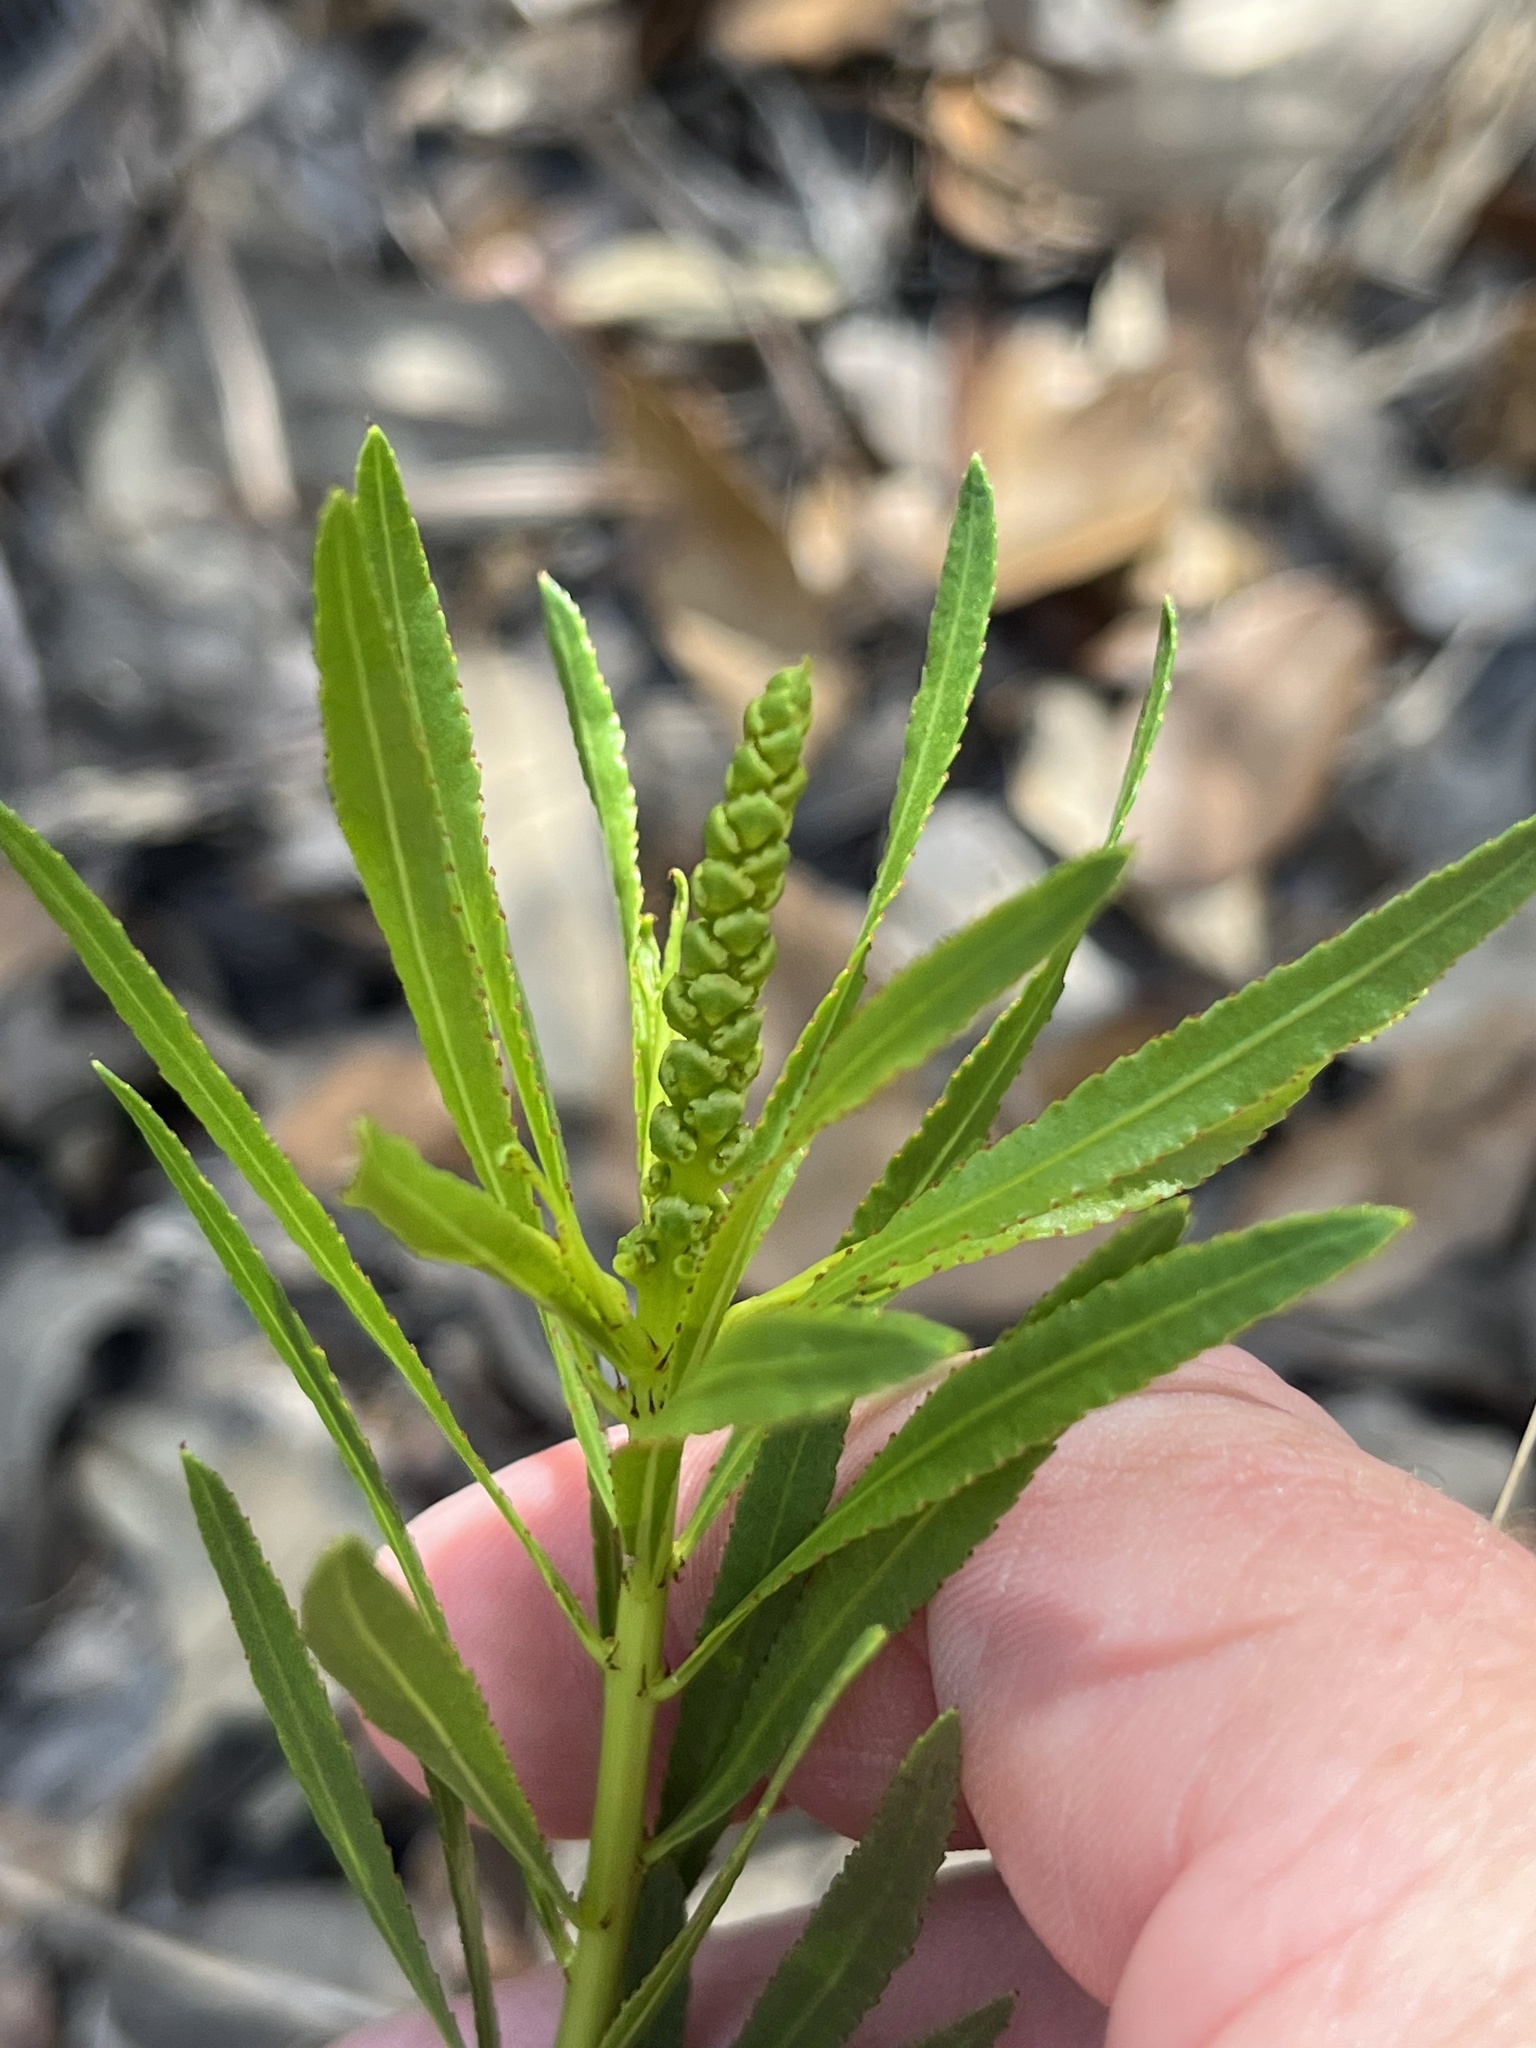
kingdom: Plantae
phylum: Tracheophyta
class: Magnoliopsida
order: Malpighiales
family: Euphorbiaceae
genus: Stillingia
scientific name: Stillingia texana
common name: Texas stillingia
